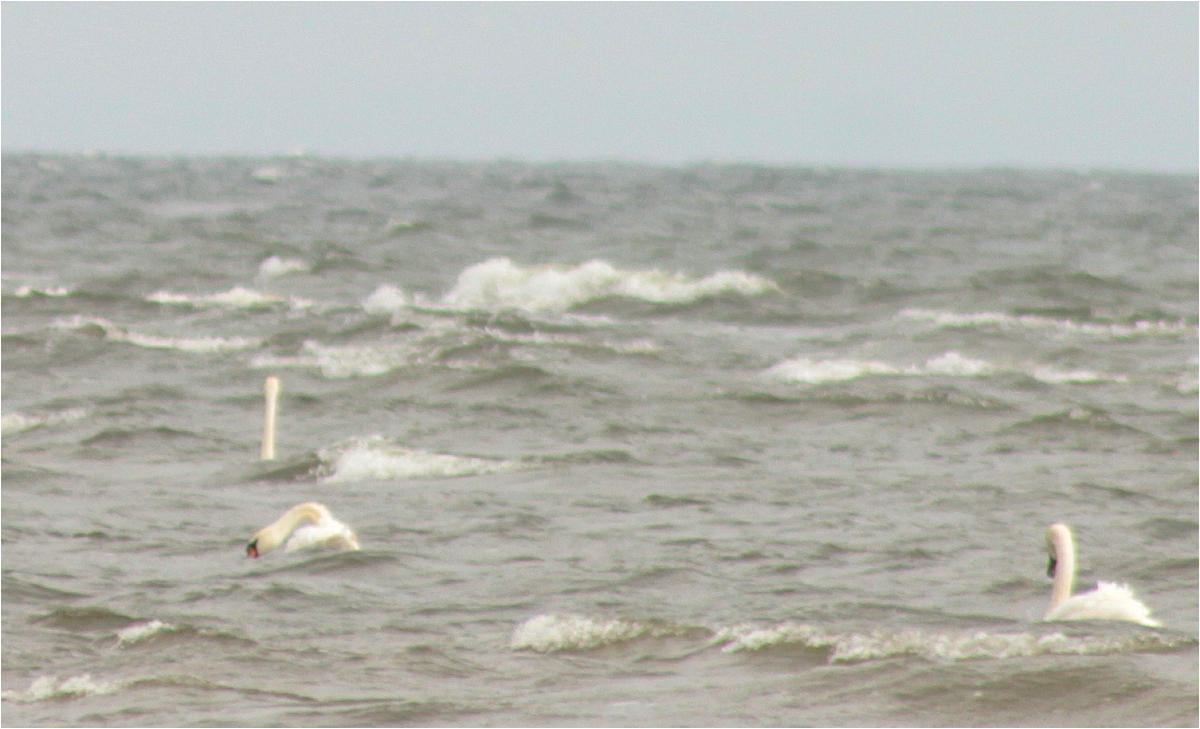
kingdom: Animalia
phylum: Chordata
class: Aves
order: Anseriformes
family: Anatidae
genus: Cygnus
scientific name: Cygnus olor
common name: Mute swan
